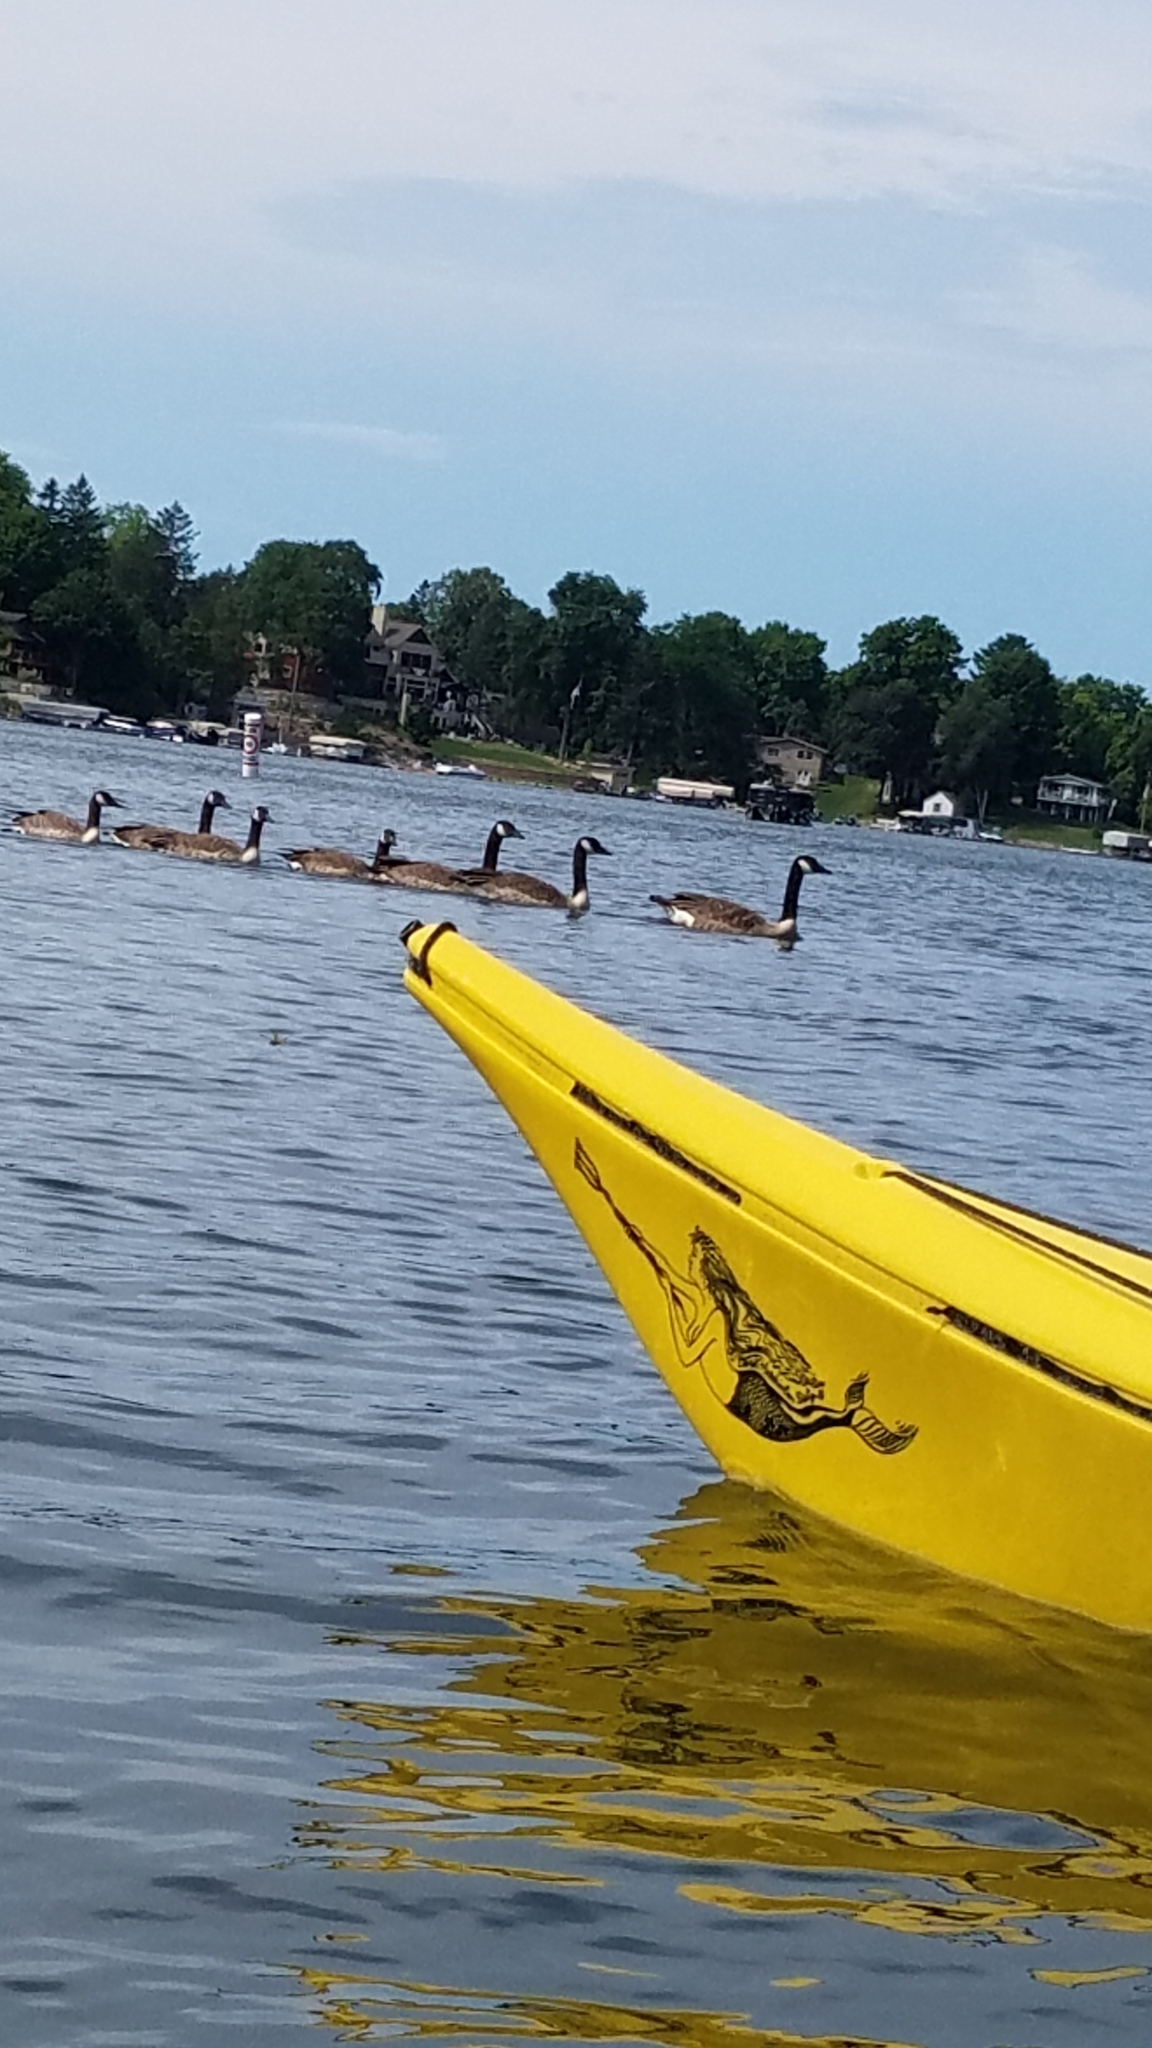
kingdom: Animalia
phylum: Chordata
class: Aves
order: Anseriformes
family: Anatidae
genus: Branta
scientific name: Branta canadensis
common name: Canada goose
